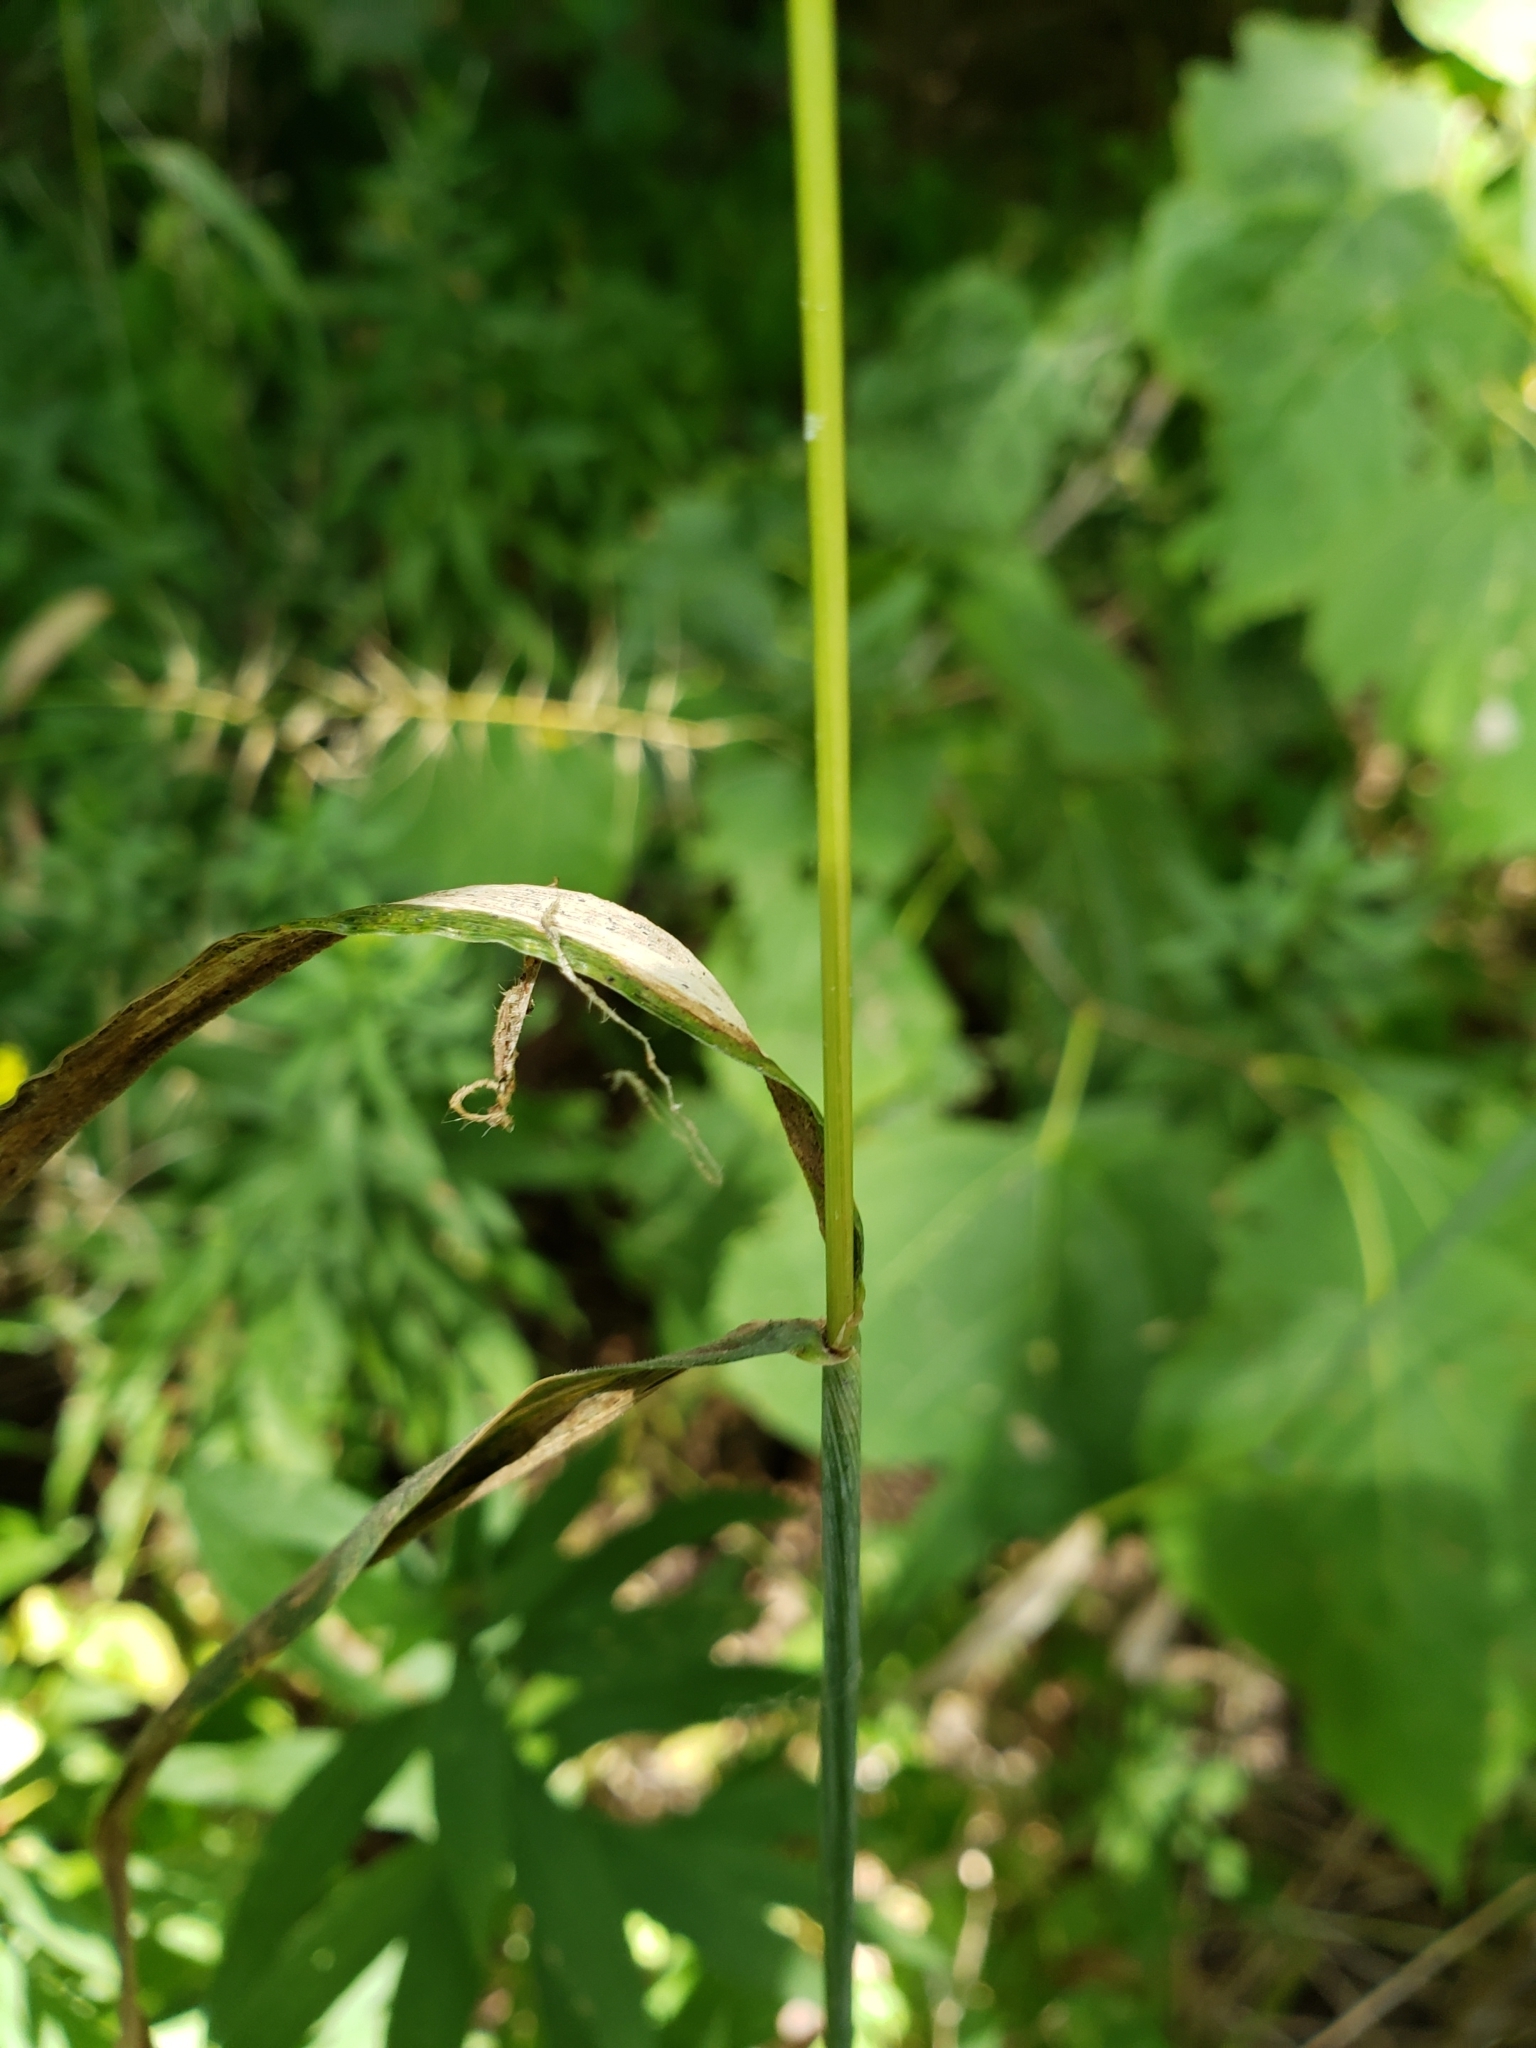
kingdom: Plantae
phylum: Tracheophyta
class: Liliopsida
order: Poales
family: Poaceae
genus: Elymus
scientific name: Elymus hystrix
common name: Bottlebrush grass
